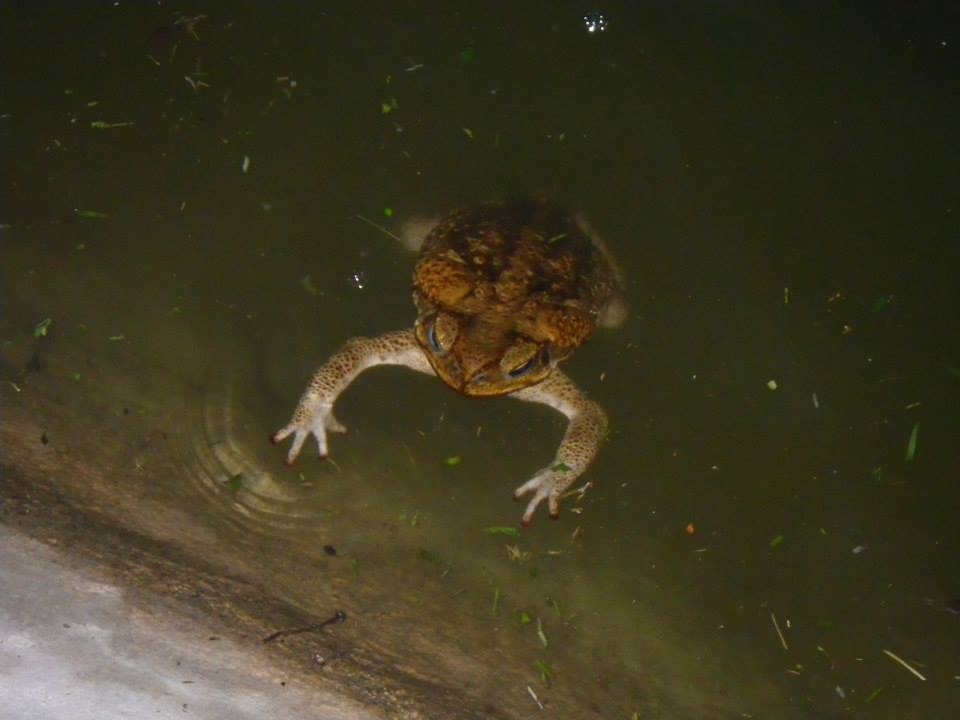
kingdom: Animalia
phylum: Chordata
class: Amphibia
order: Anura
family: Bufonidae
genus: Rhinella
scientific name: Rhinella marina
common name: Cane toad
